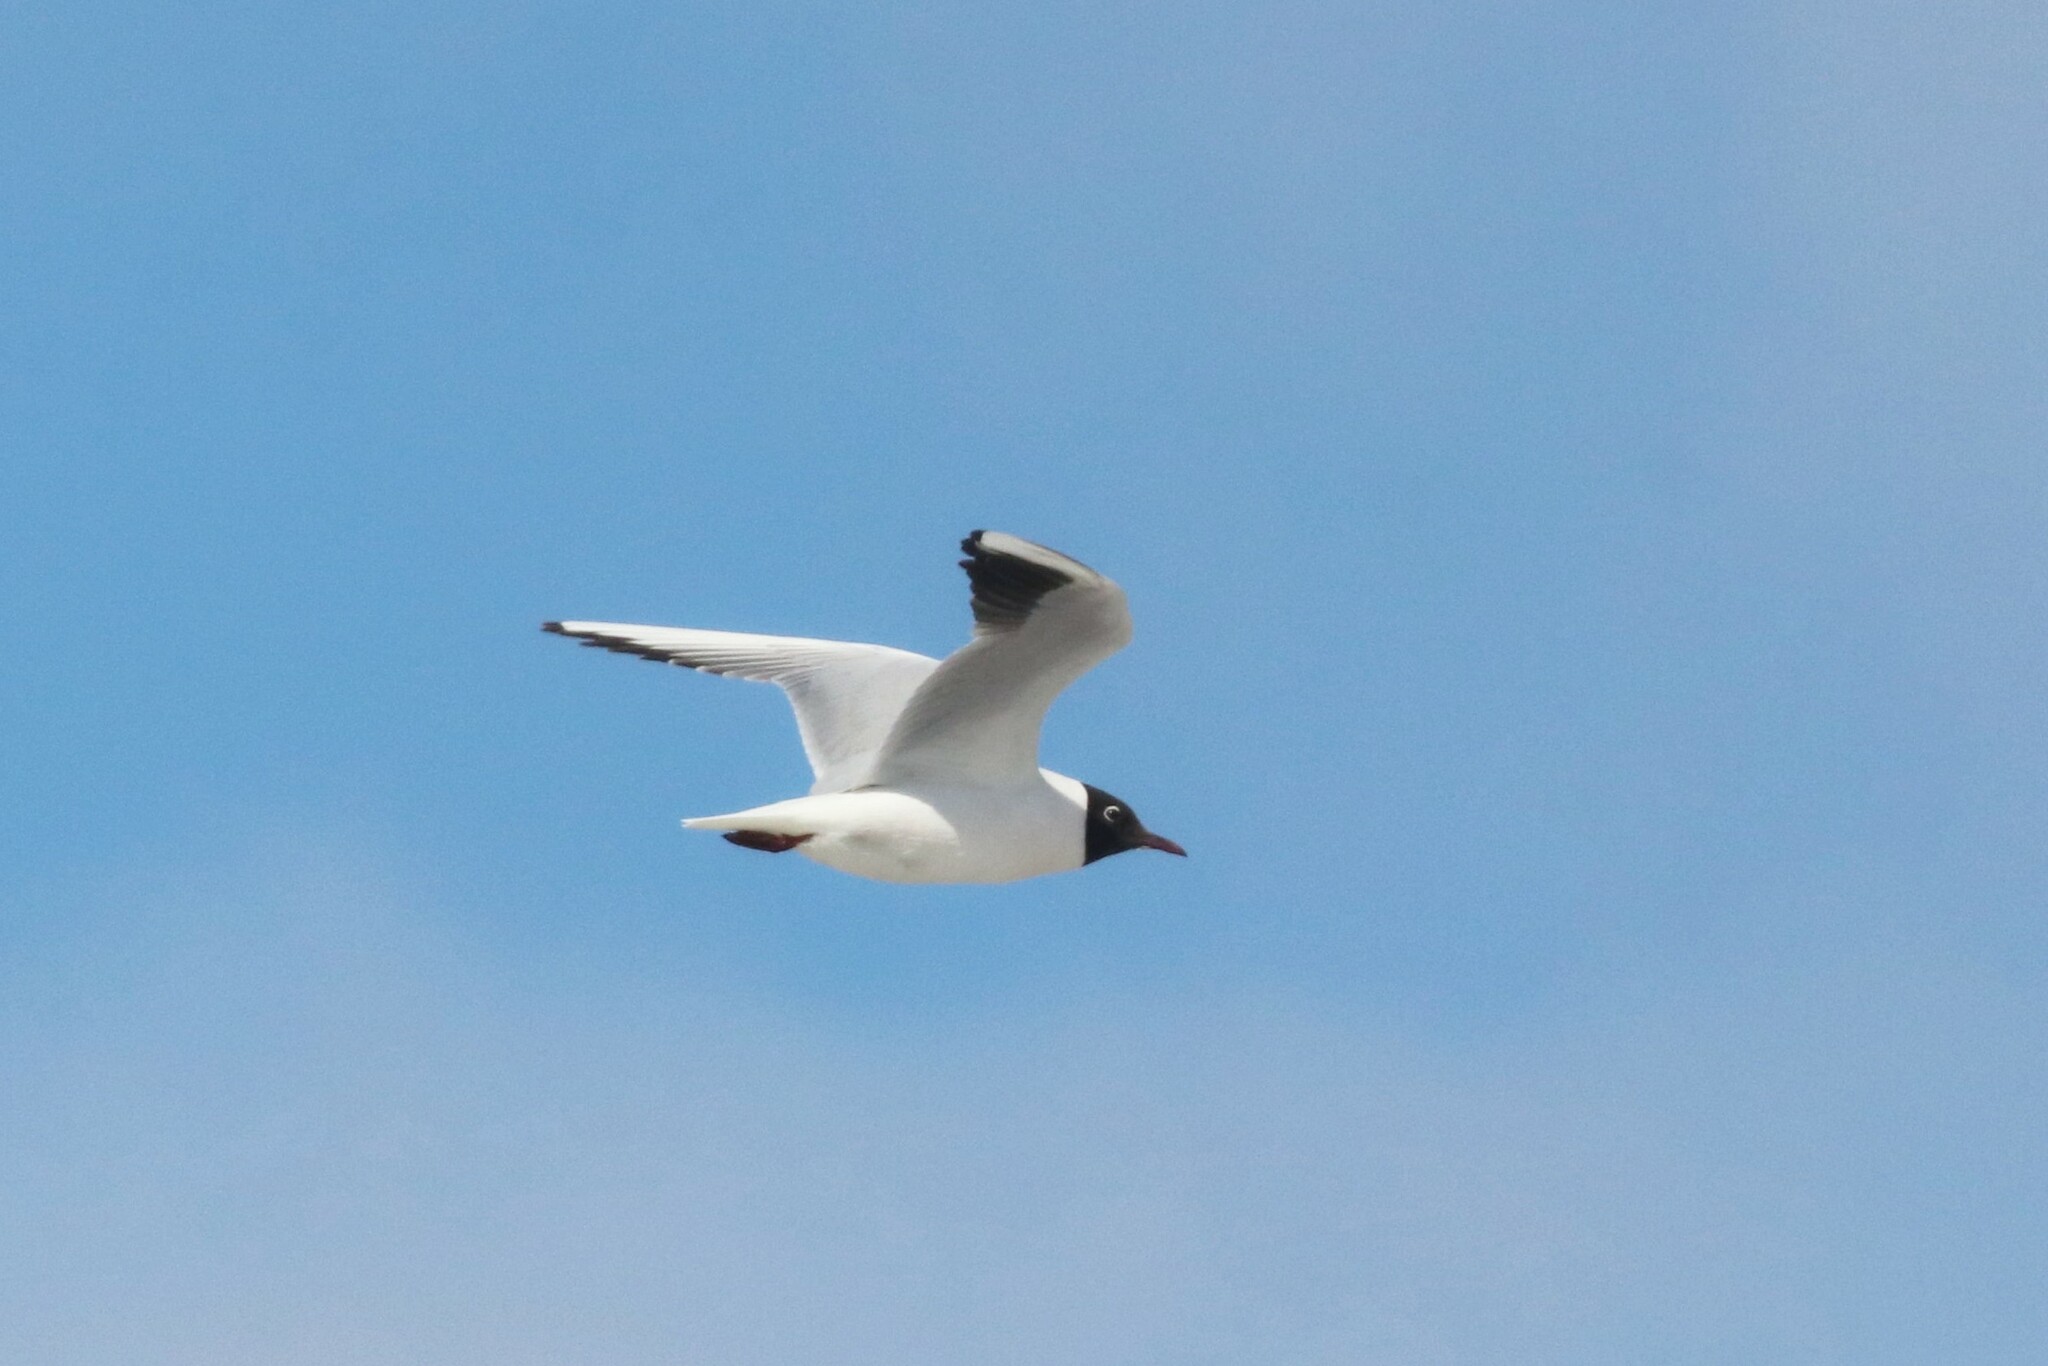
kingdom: Animalia
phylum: Chordata
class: Aves
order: Charadriiformes
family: Laridae
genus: Chroicocephalus
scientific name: Chroicocephalus ridibundus
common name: Black-headed gull
